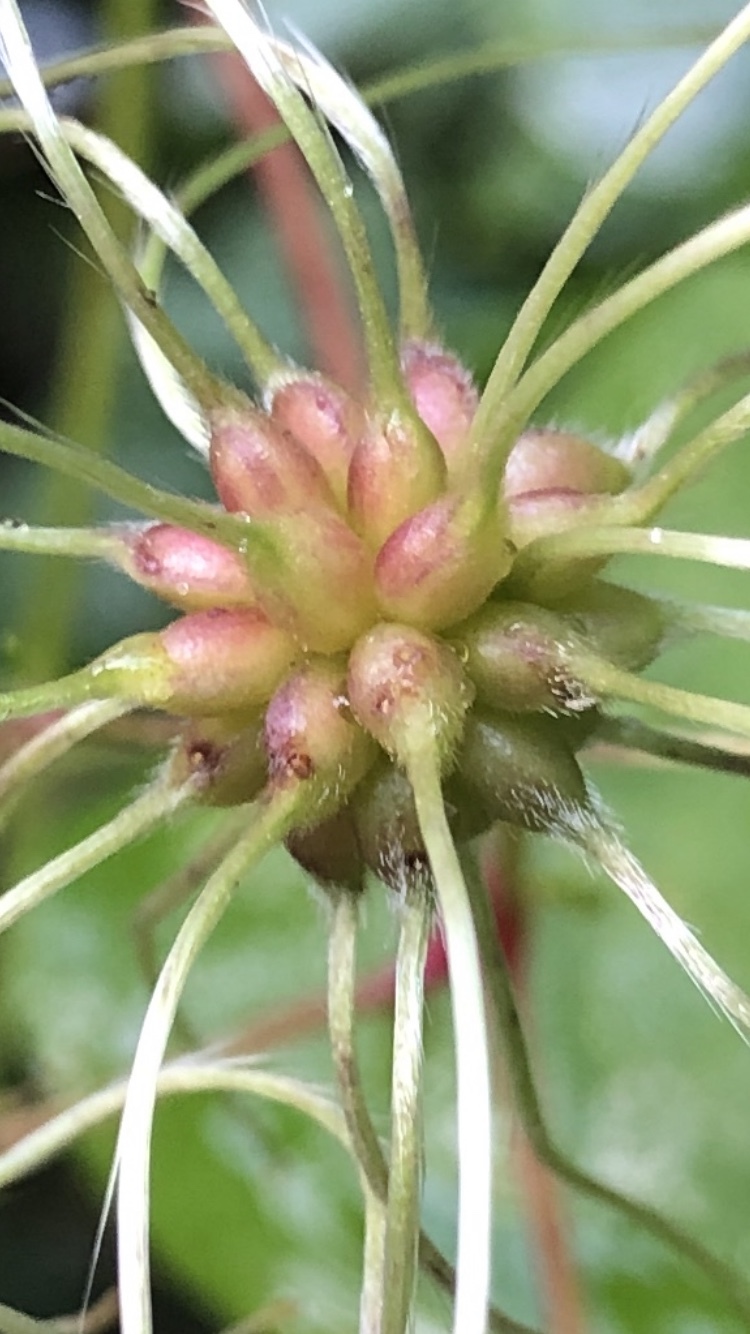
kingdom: Plantae
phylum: Tracheophyta
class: Magnoliopsida
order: Ranunculales
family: Ranunculaceae
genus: Clematis
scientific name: Clematis vitalba
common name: Evergreen clematis
